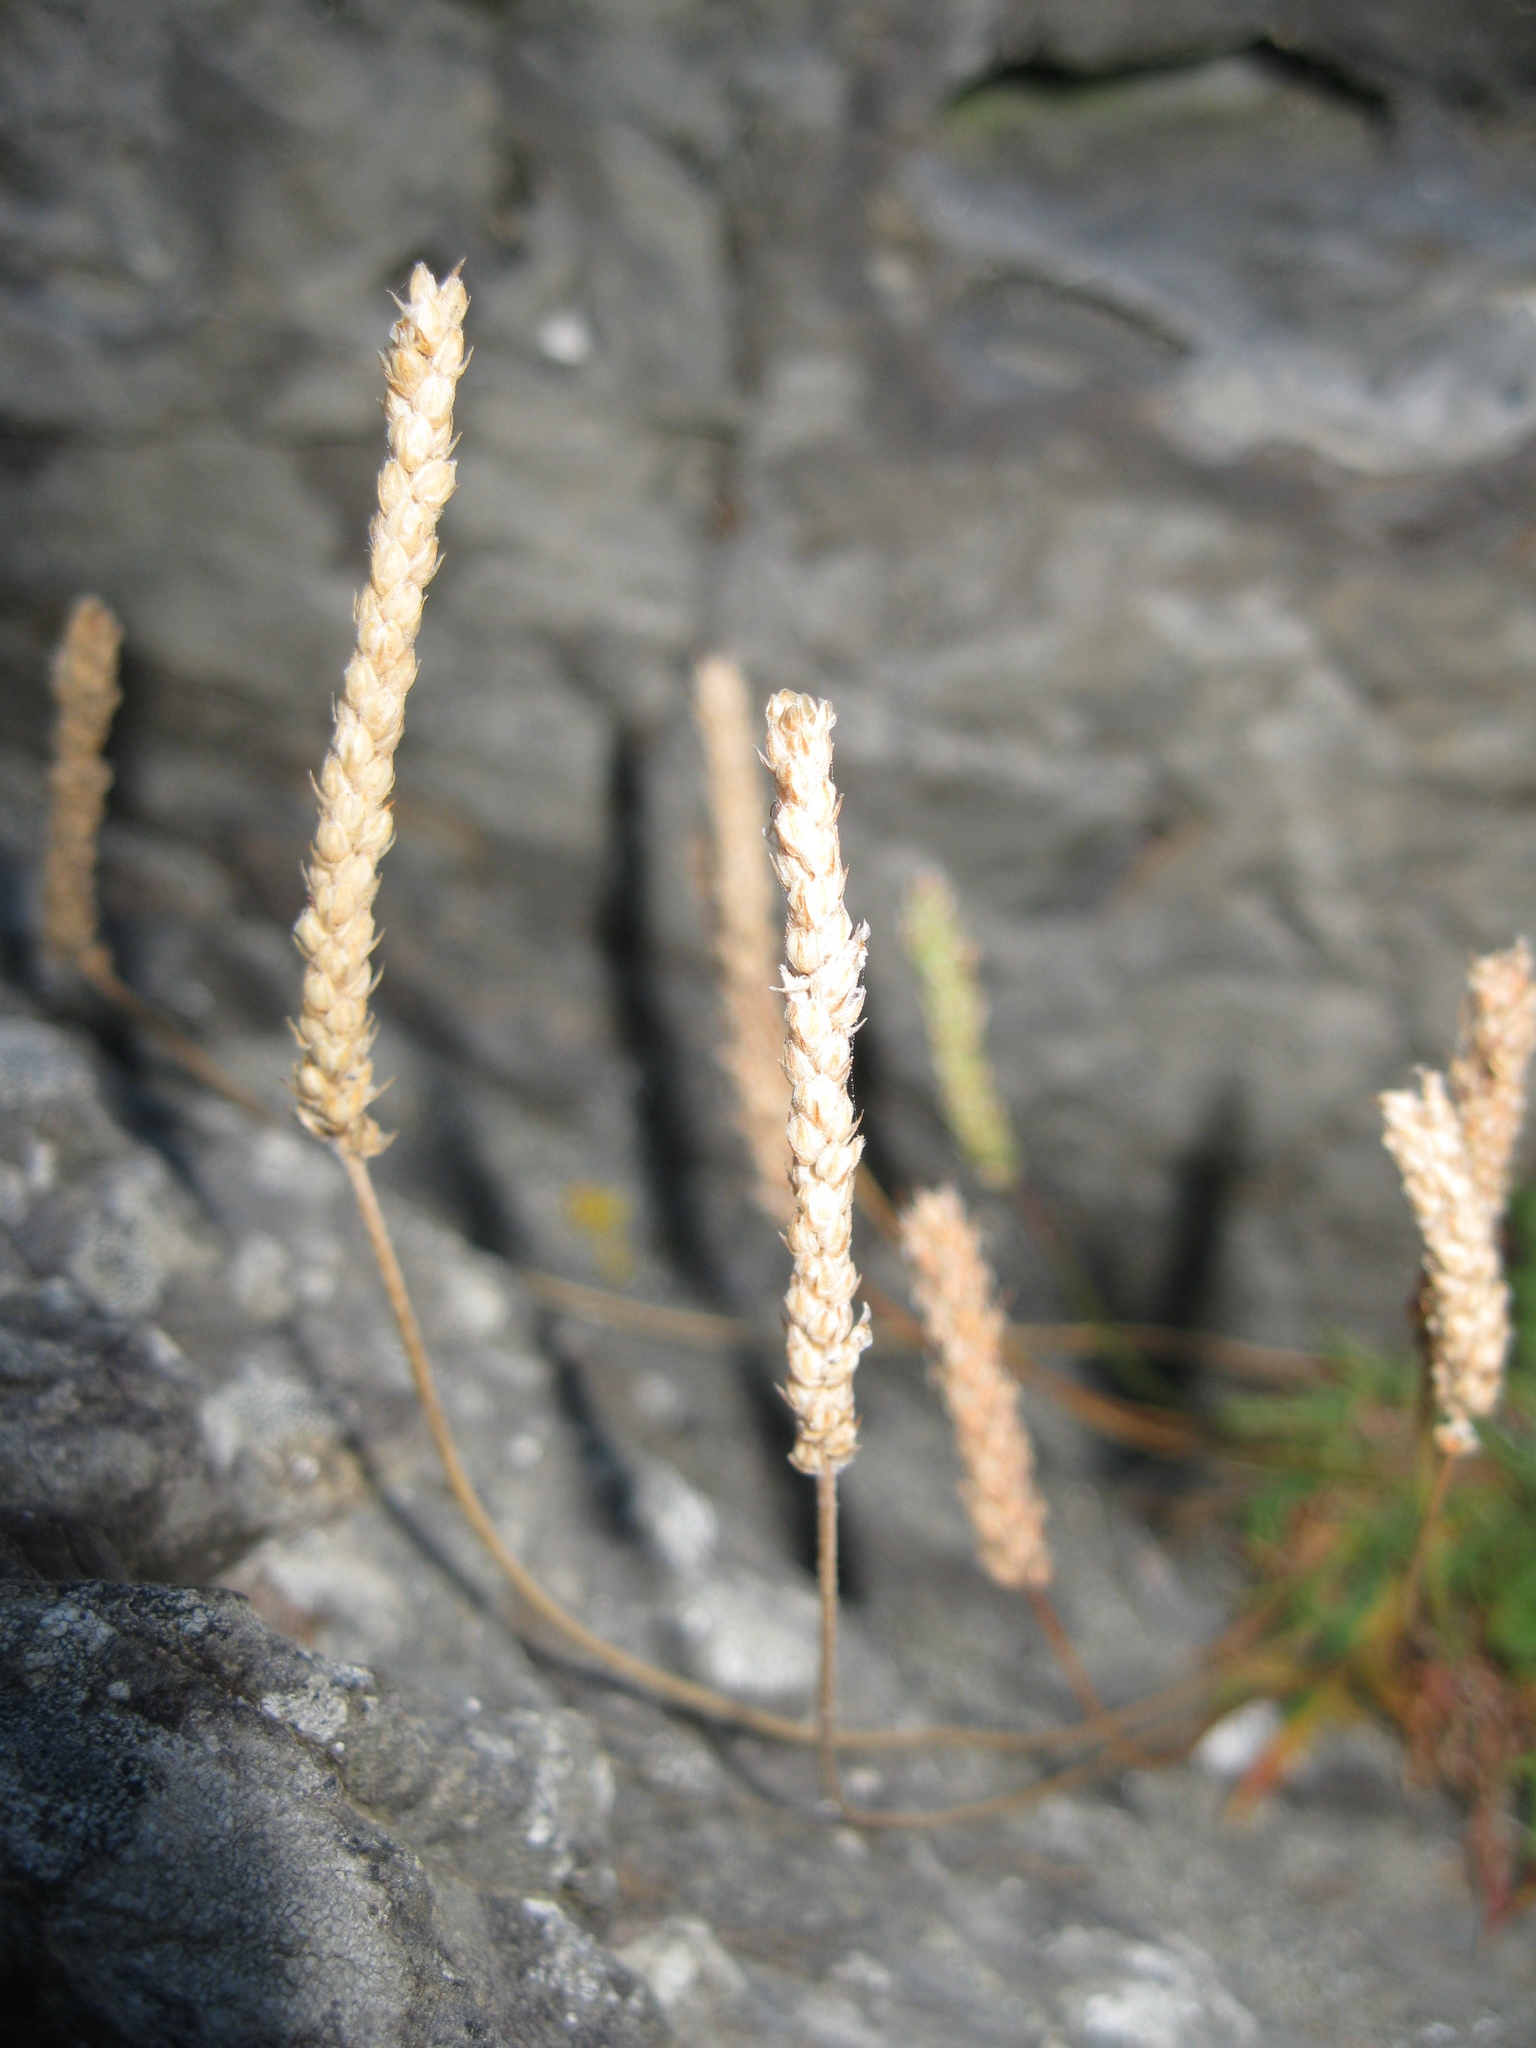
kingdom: Plantae
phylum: Tracheophyta
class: Magnoliopsida
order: Lamiales
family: Plantaginaceae
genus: Plantago
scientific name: Plantago coronopus
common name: Buck's-horn plantain
